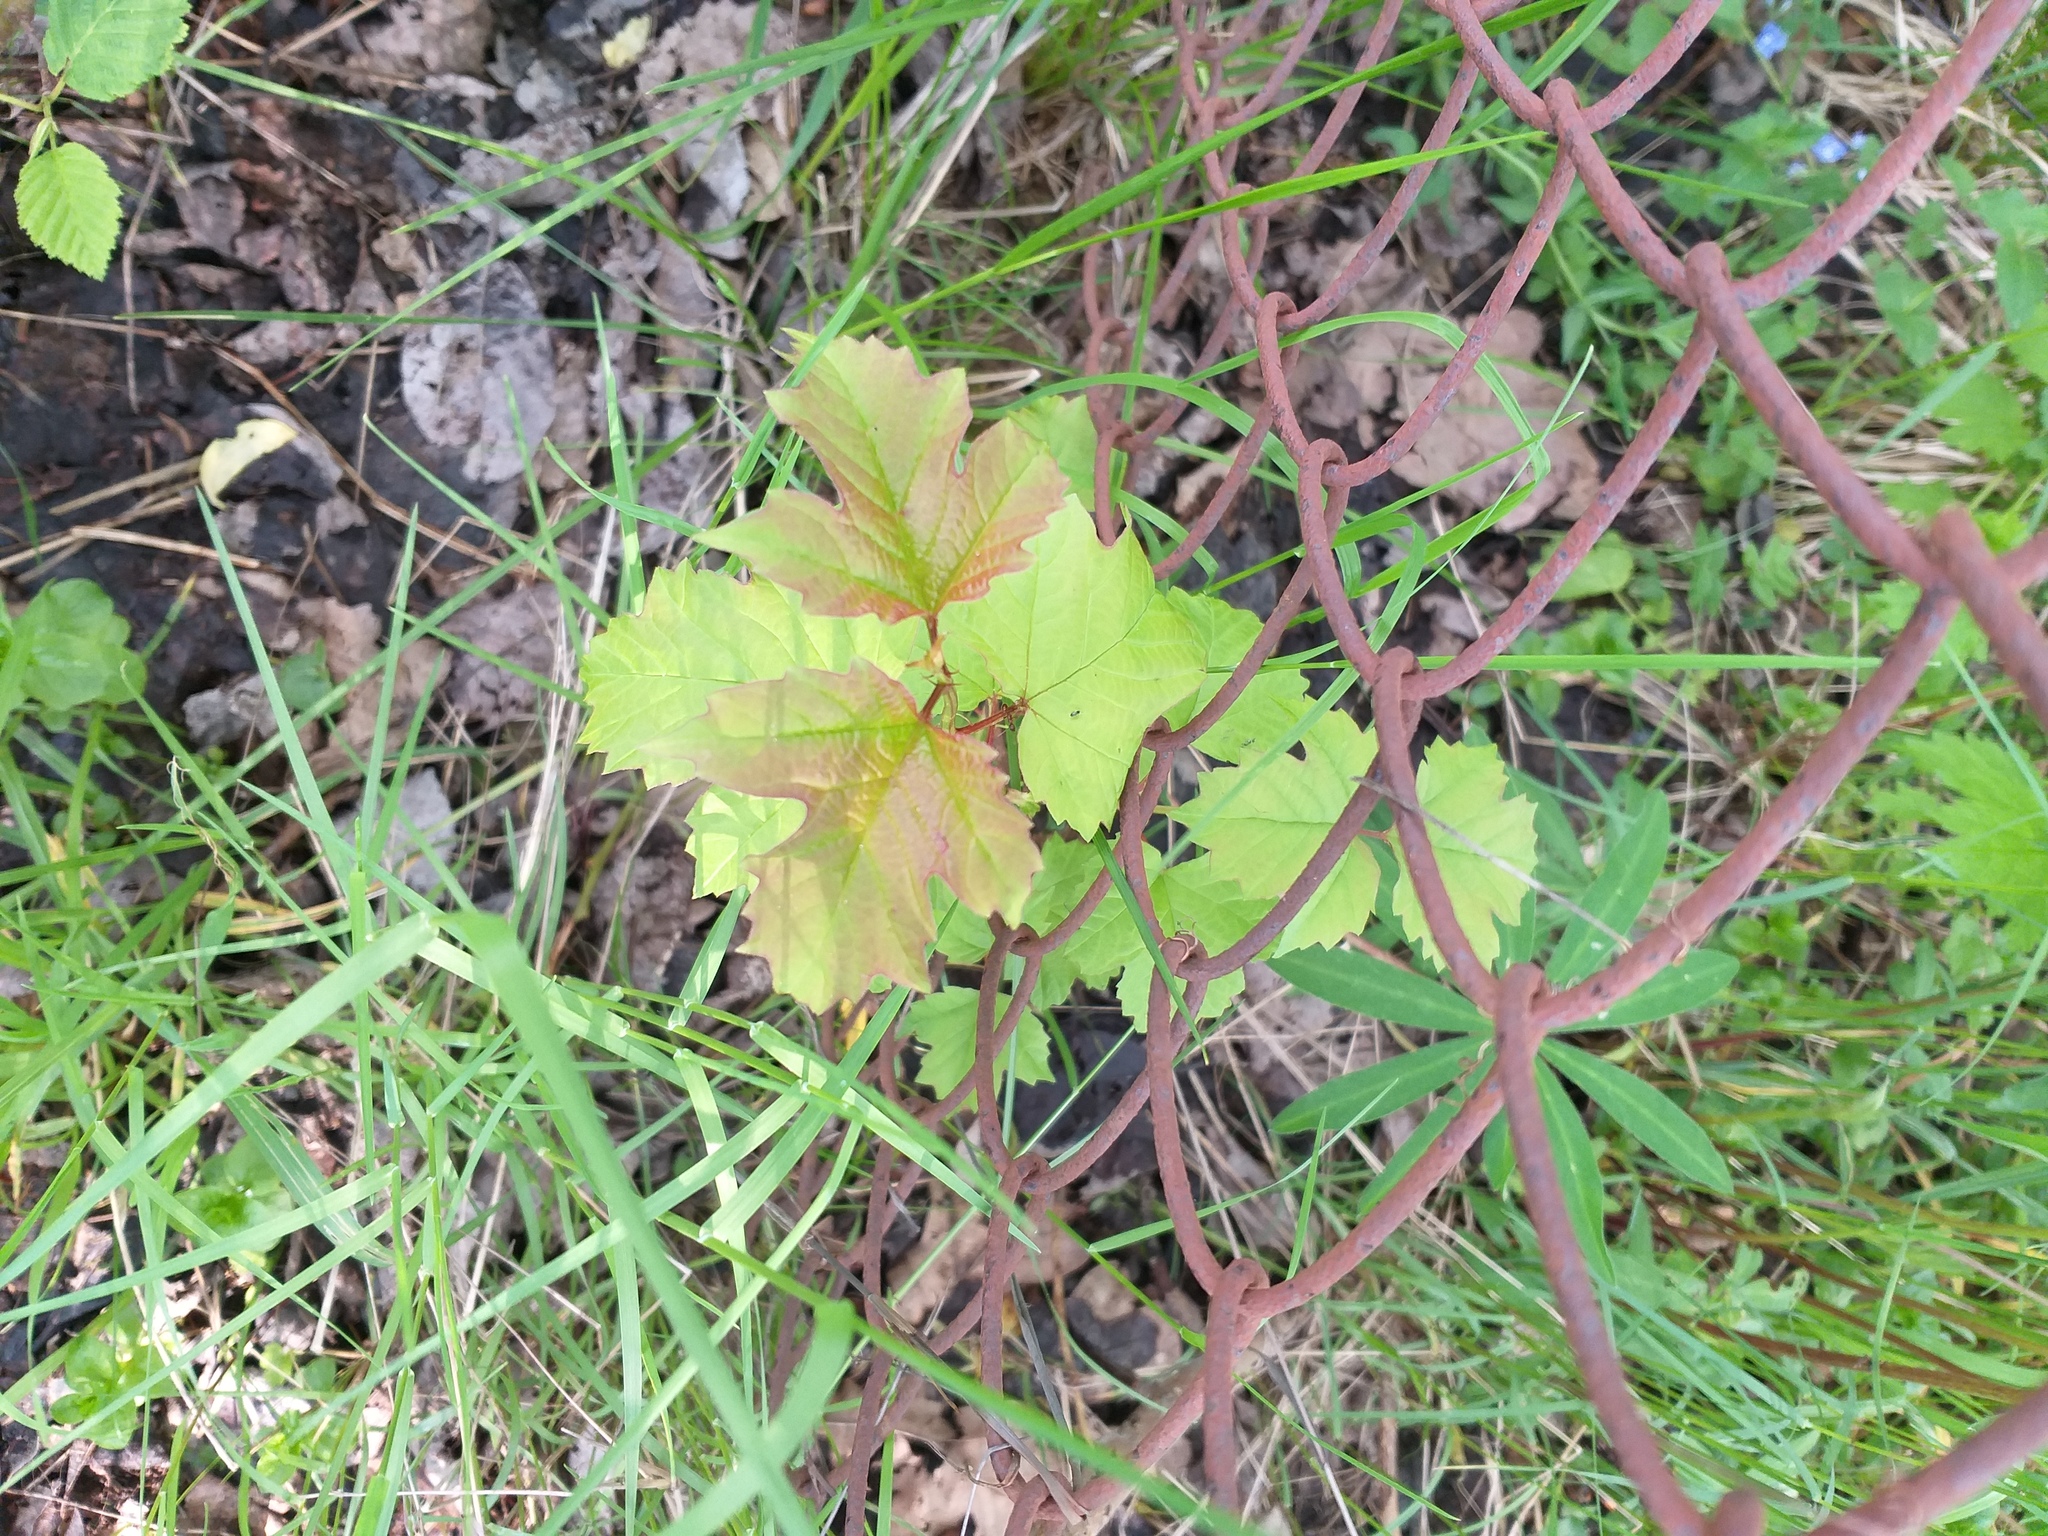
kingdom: Plantae
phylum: Tracheophyta
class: Magnoliopsida
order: Dipsacales
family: Viburnaceae
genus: Viburnum
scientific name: Viburnum opulus
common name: Guelder-rose
